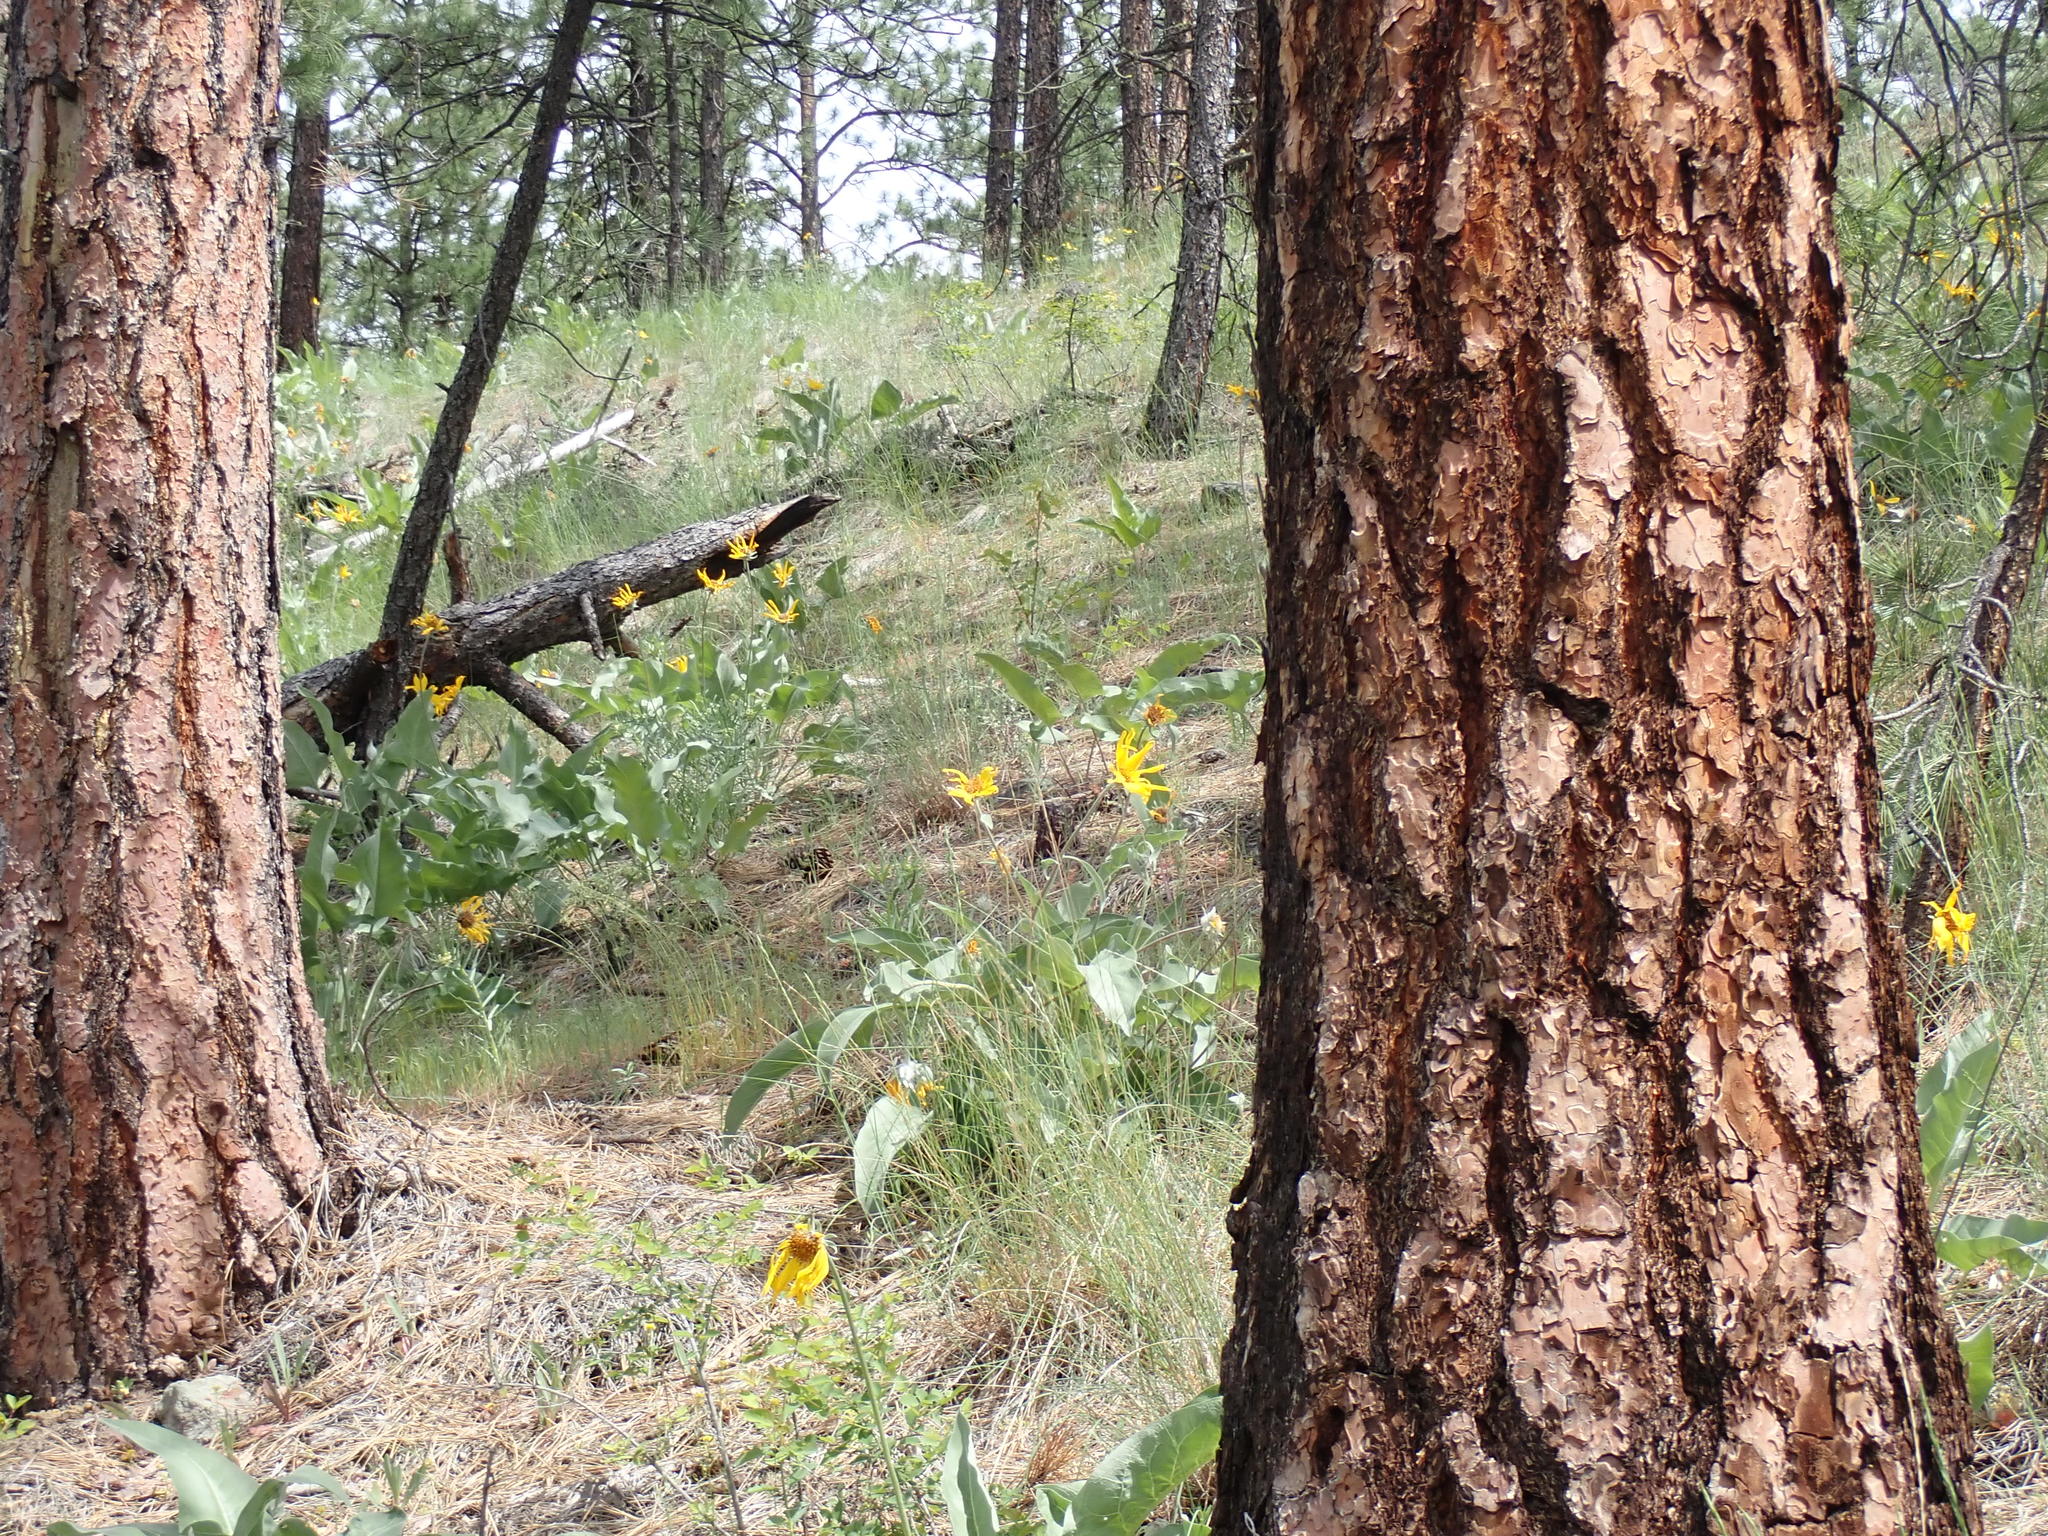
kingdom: Plantae
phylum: Tracheophyta
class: Pinopsida
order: Pinales
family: Pinaceae
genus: Pinus
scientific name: Pinus ponderosa
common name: Western yellow-pine
